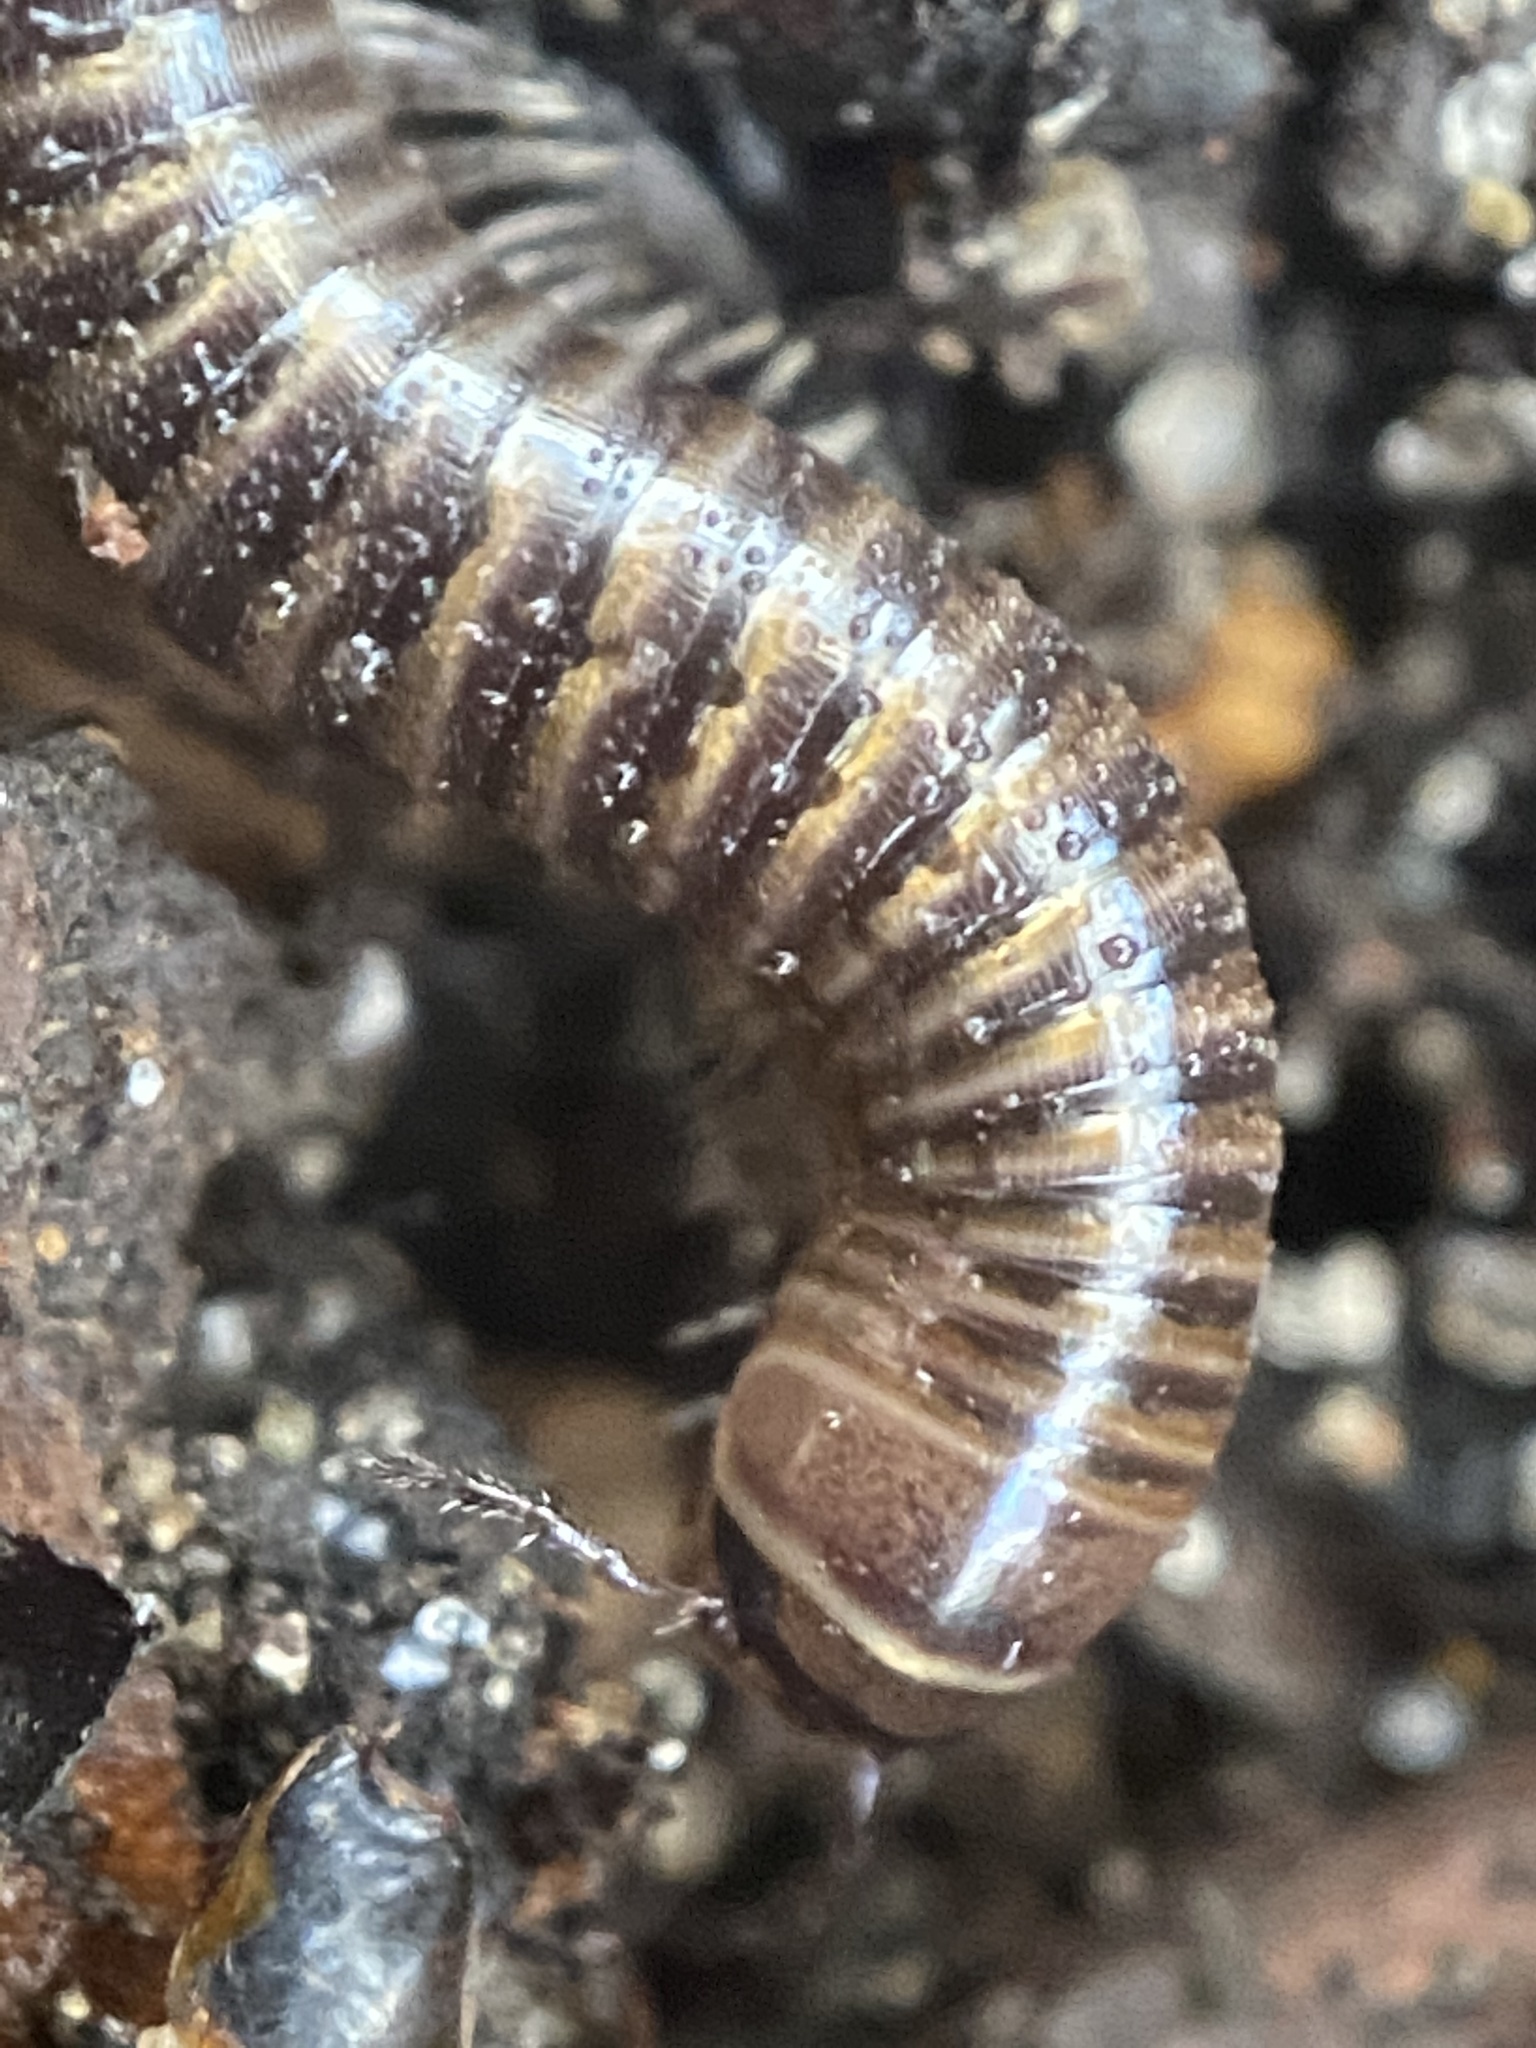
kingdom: Animalia
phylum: Arthropoda
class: Diplopoda
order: Julida
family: Julidae
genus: Cylindroiulus
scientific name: Cylindroiulus caeruleocinctus
